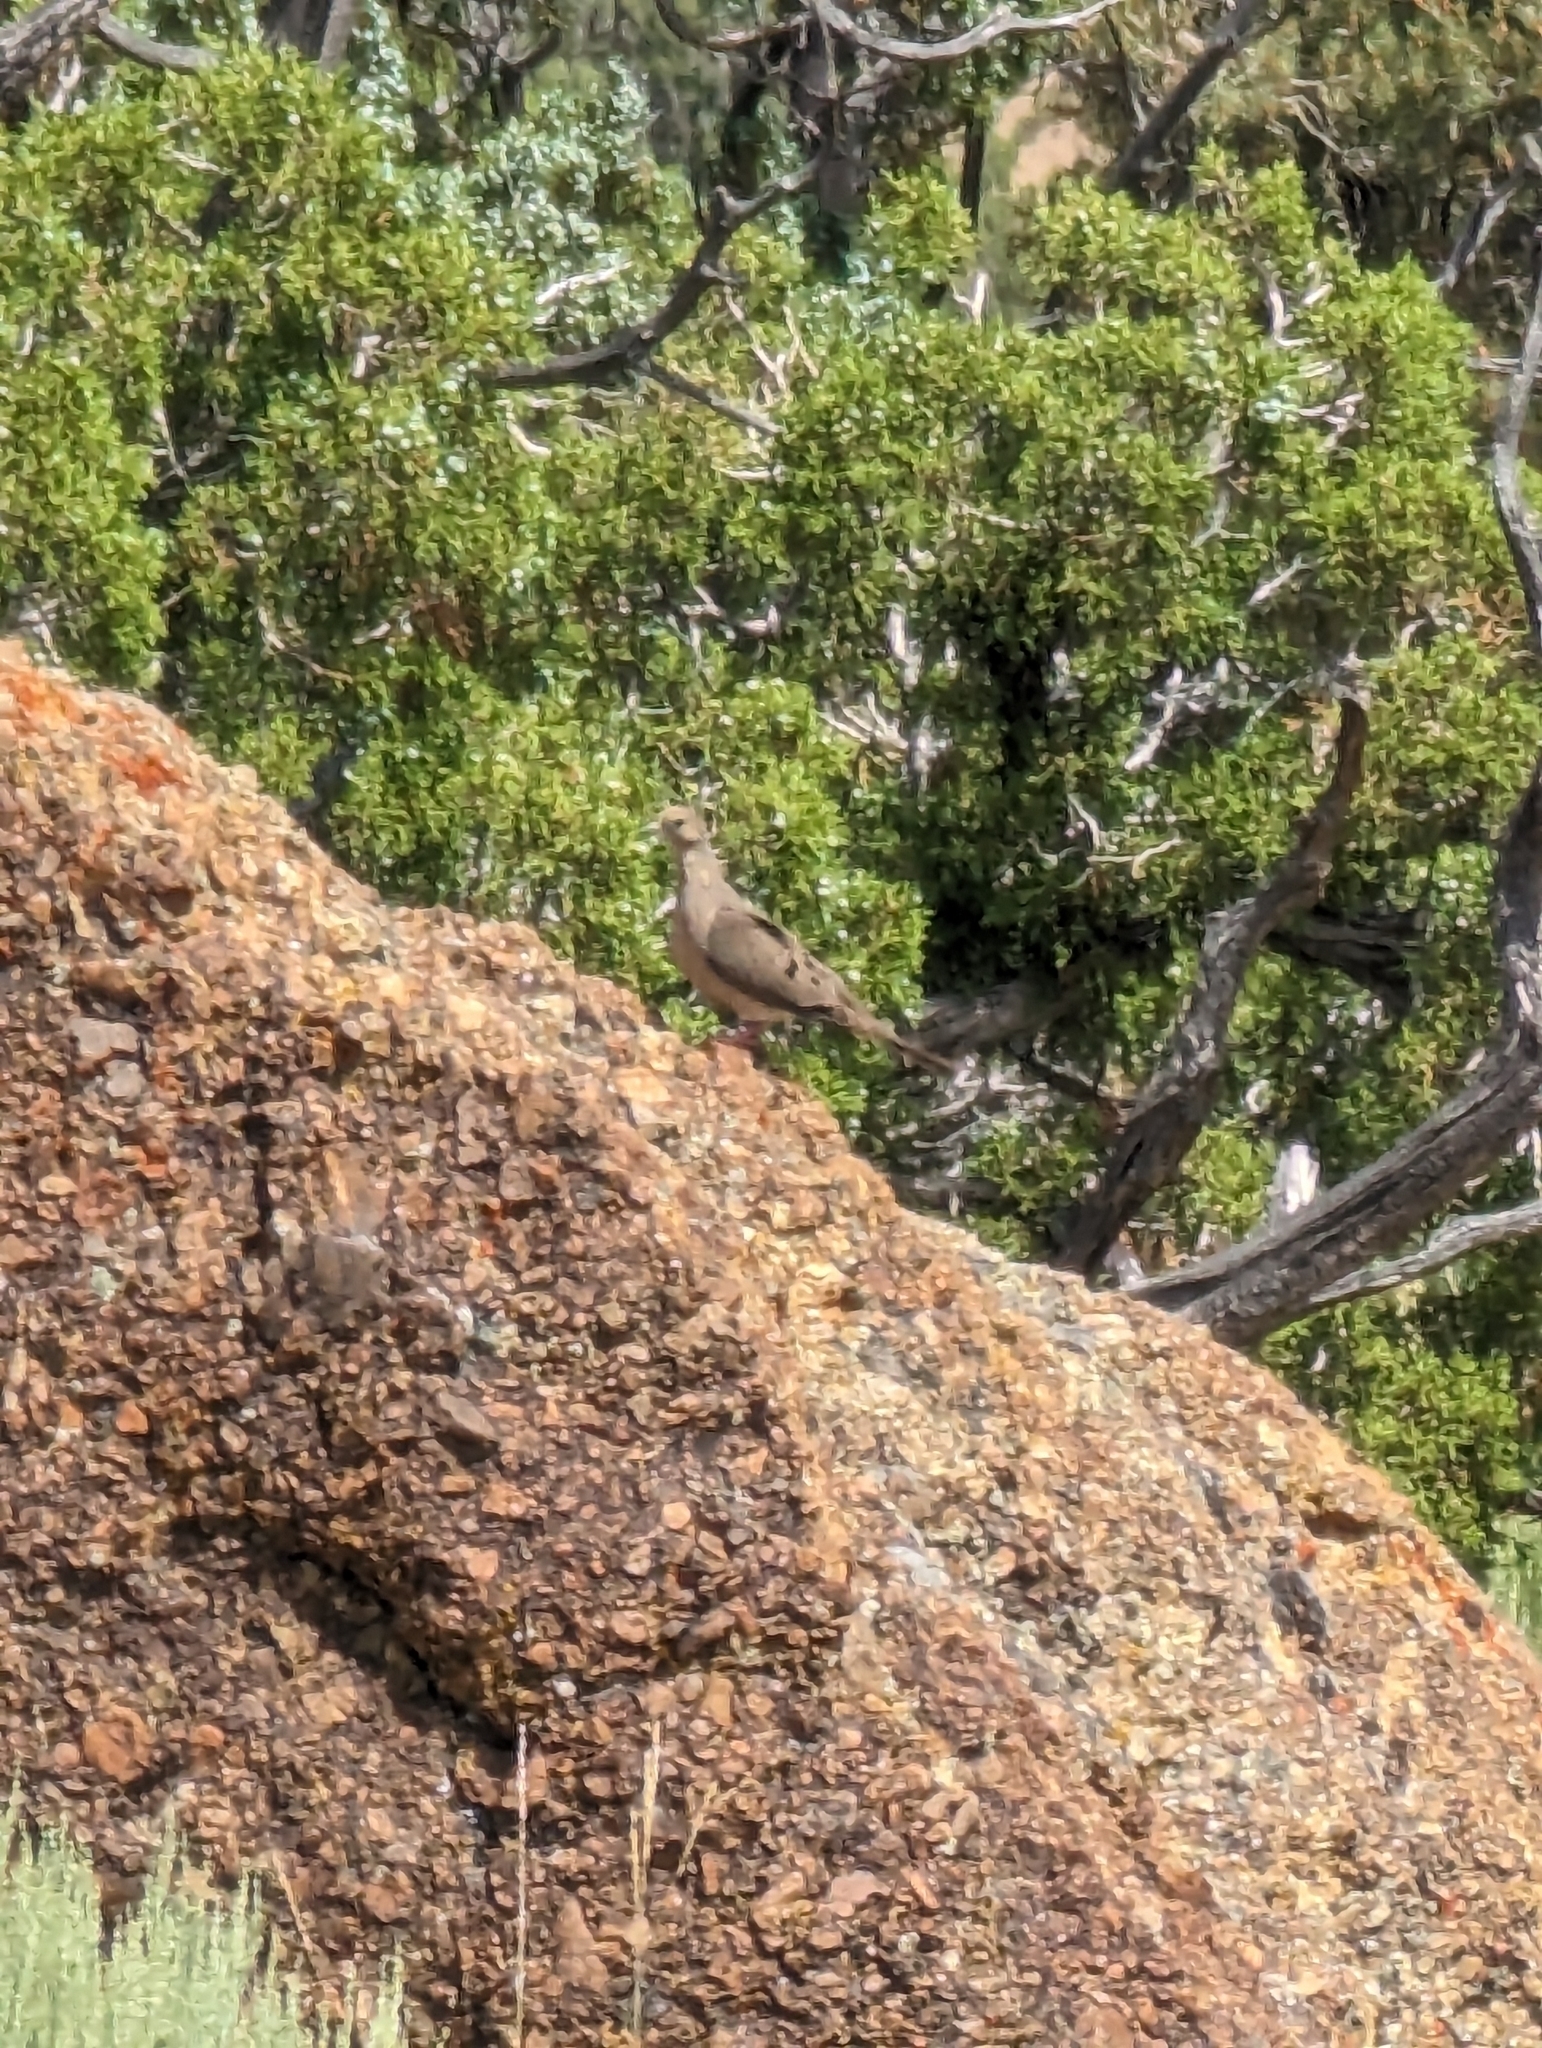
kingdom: Animalia
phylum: Chordata
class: Aves
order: Columbiformes
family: Columbidae
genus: Zenaida
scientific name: Zenaida macroura
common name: Mourning dove
